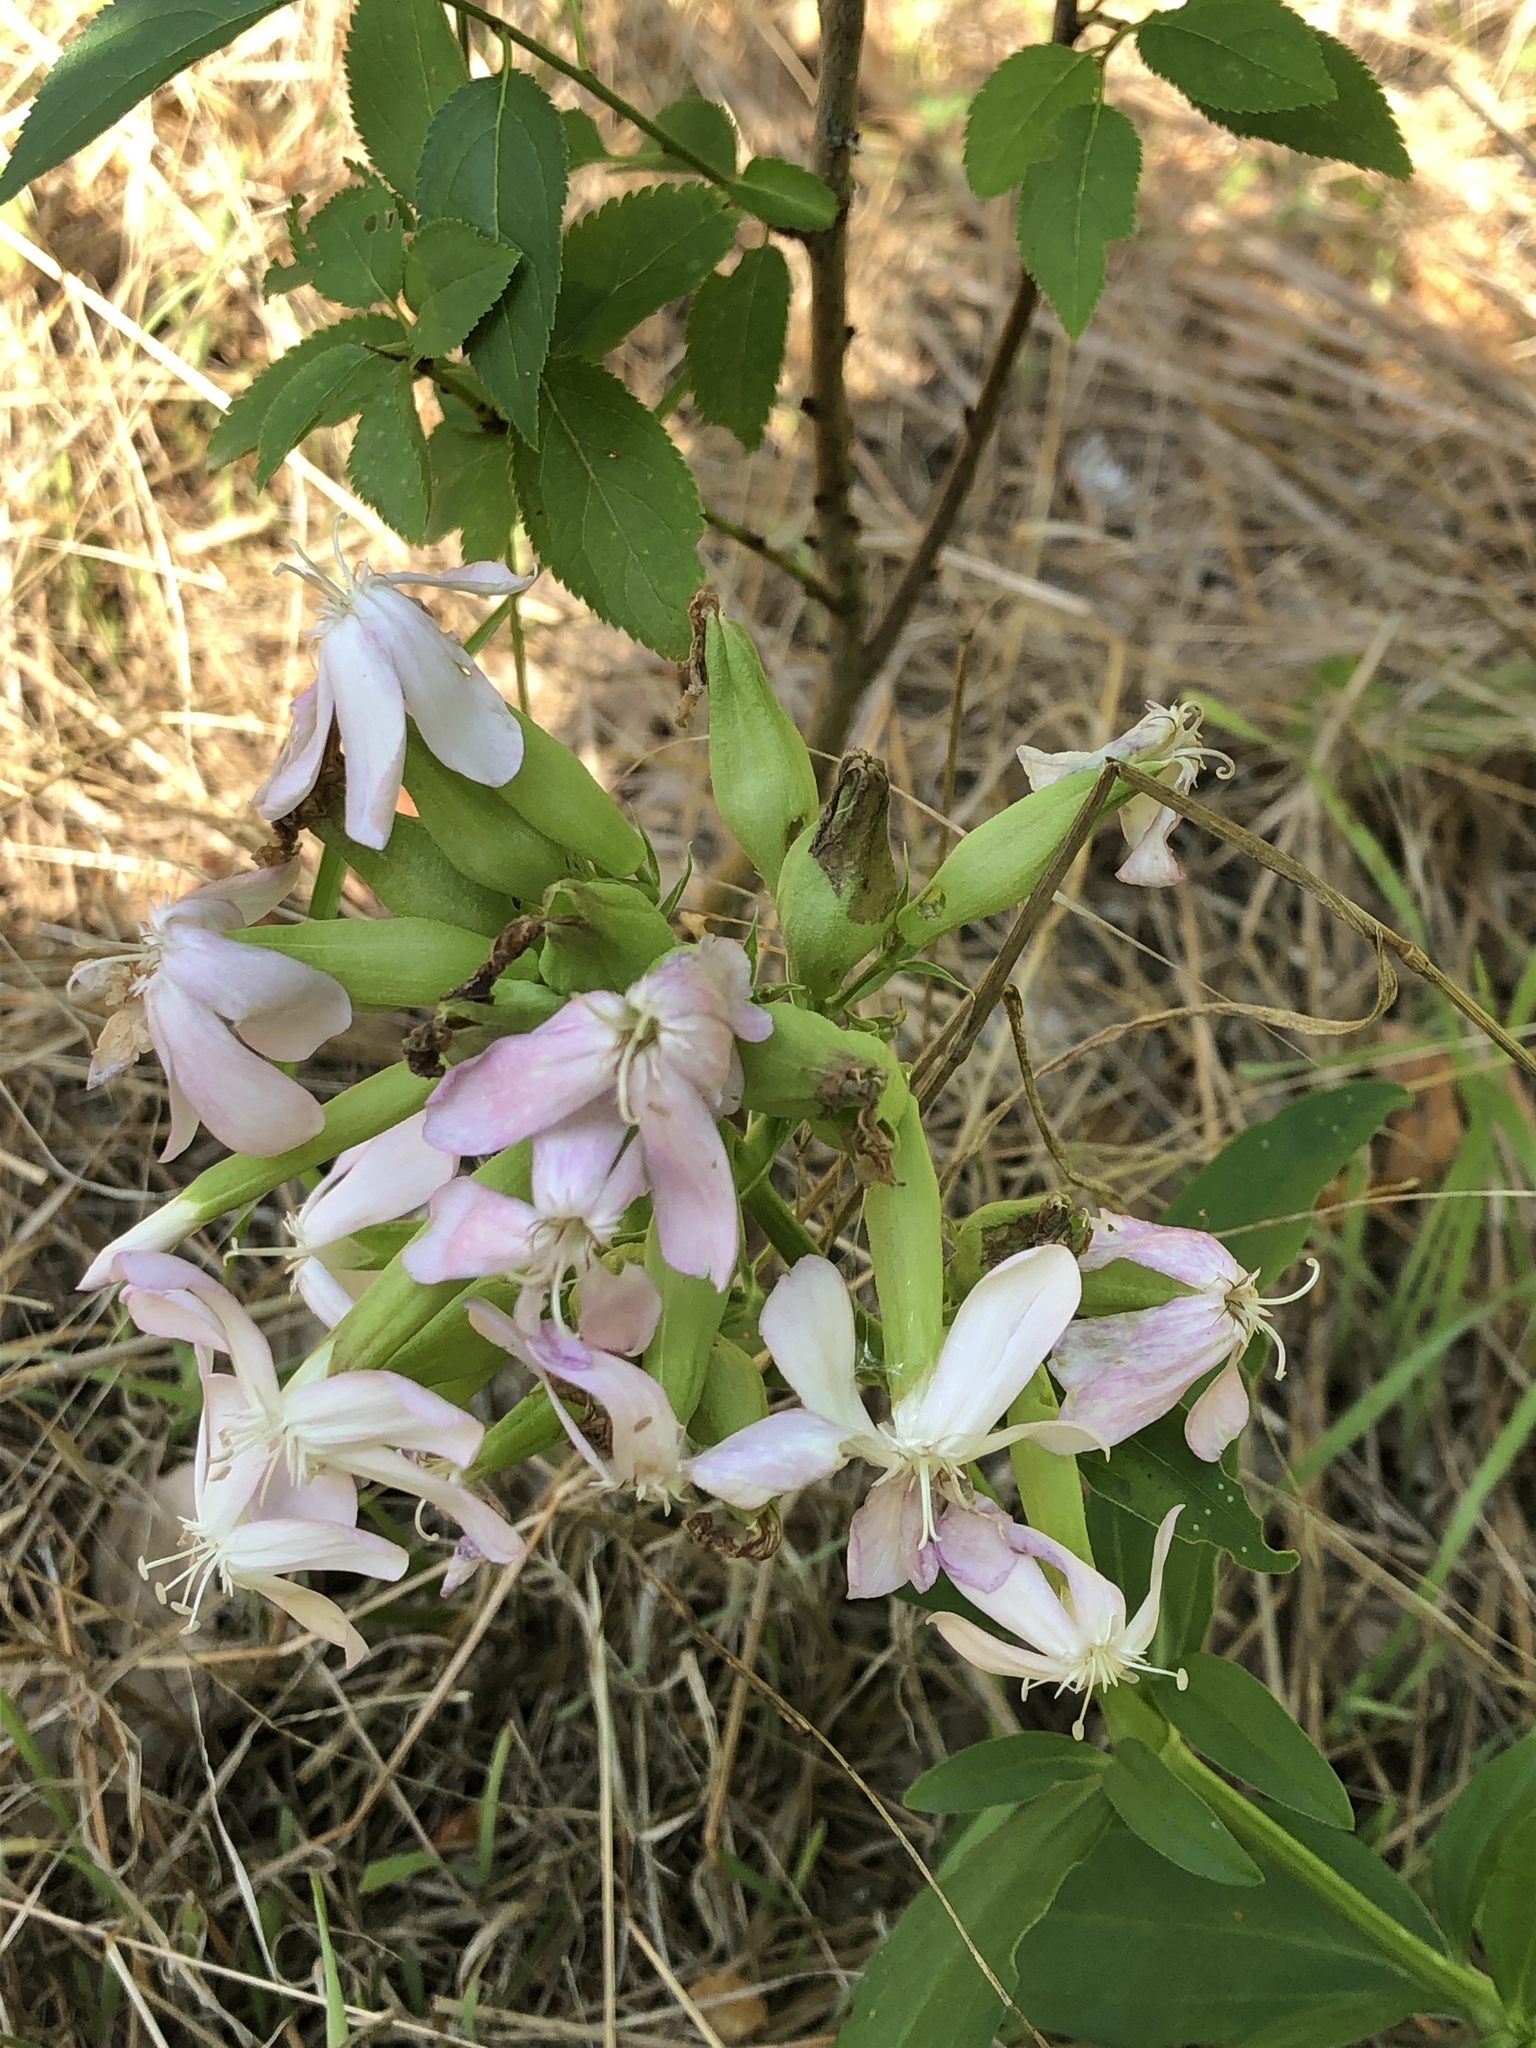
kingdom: Plantae
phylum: Tracheophyta
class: Magnoliopsida
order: Caryophyllales
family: Caryophyllaceae
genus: Saponaria
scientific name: Saponaria officinalis
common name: Soapwort
